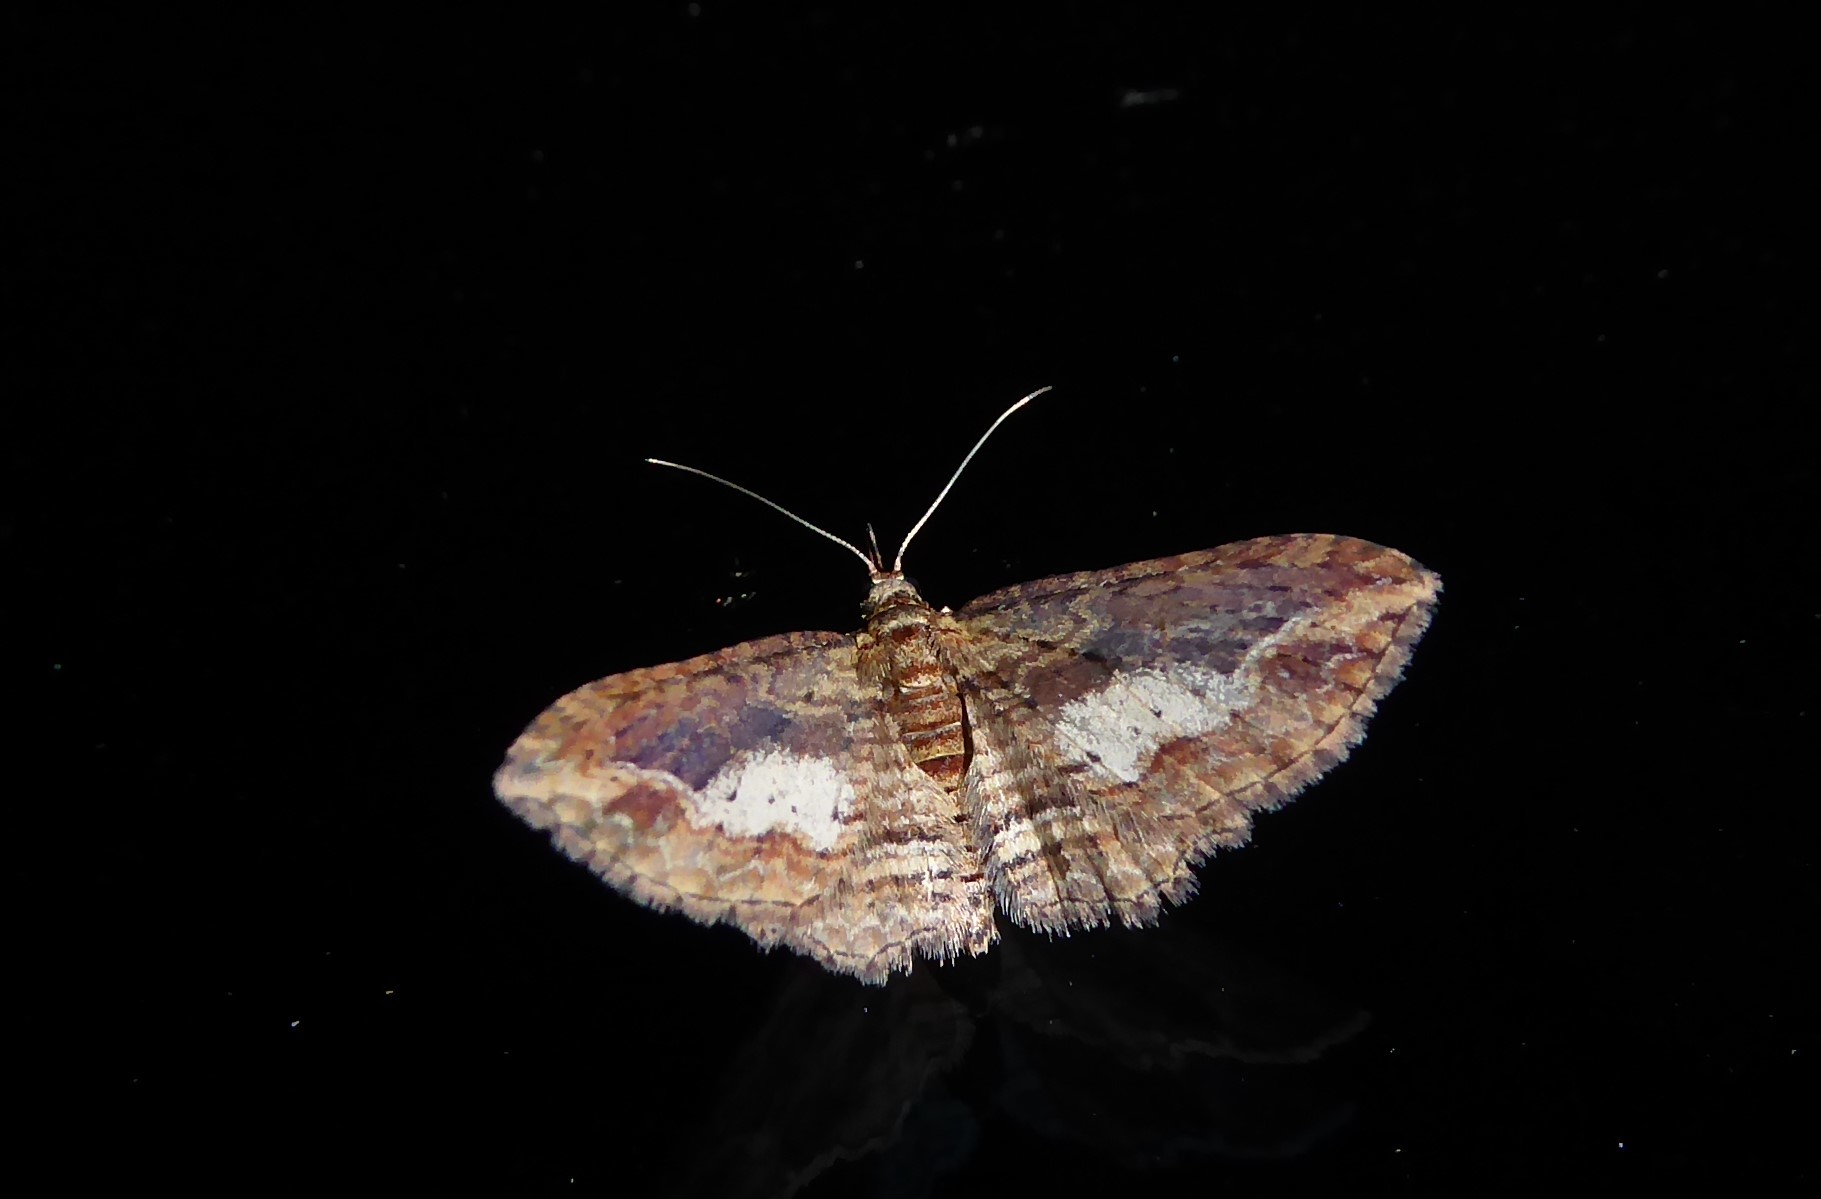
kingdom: Animalia
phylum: Arthropoda
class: Insecta
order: Lepidoptera
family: Geometridae
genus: Chloroclystis
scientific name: Chloroclystis filata
